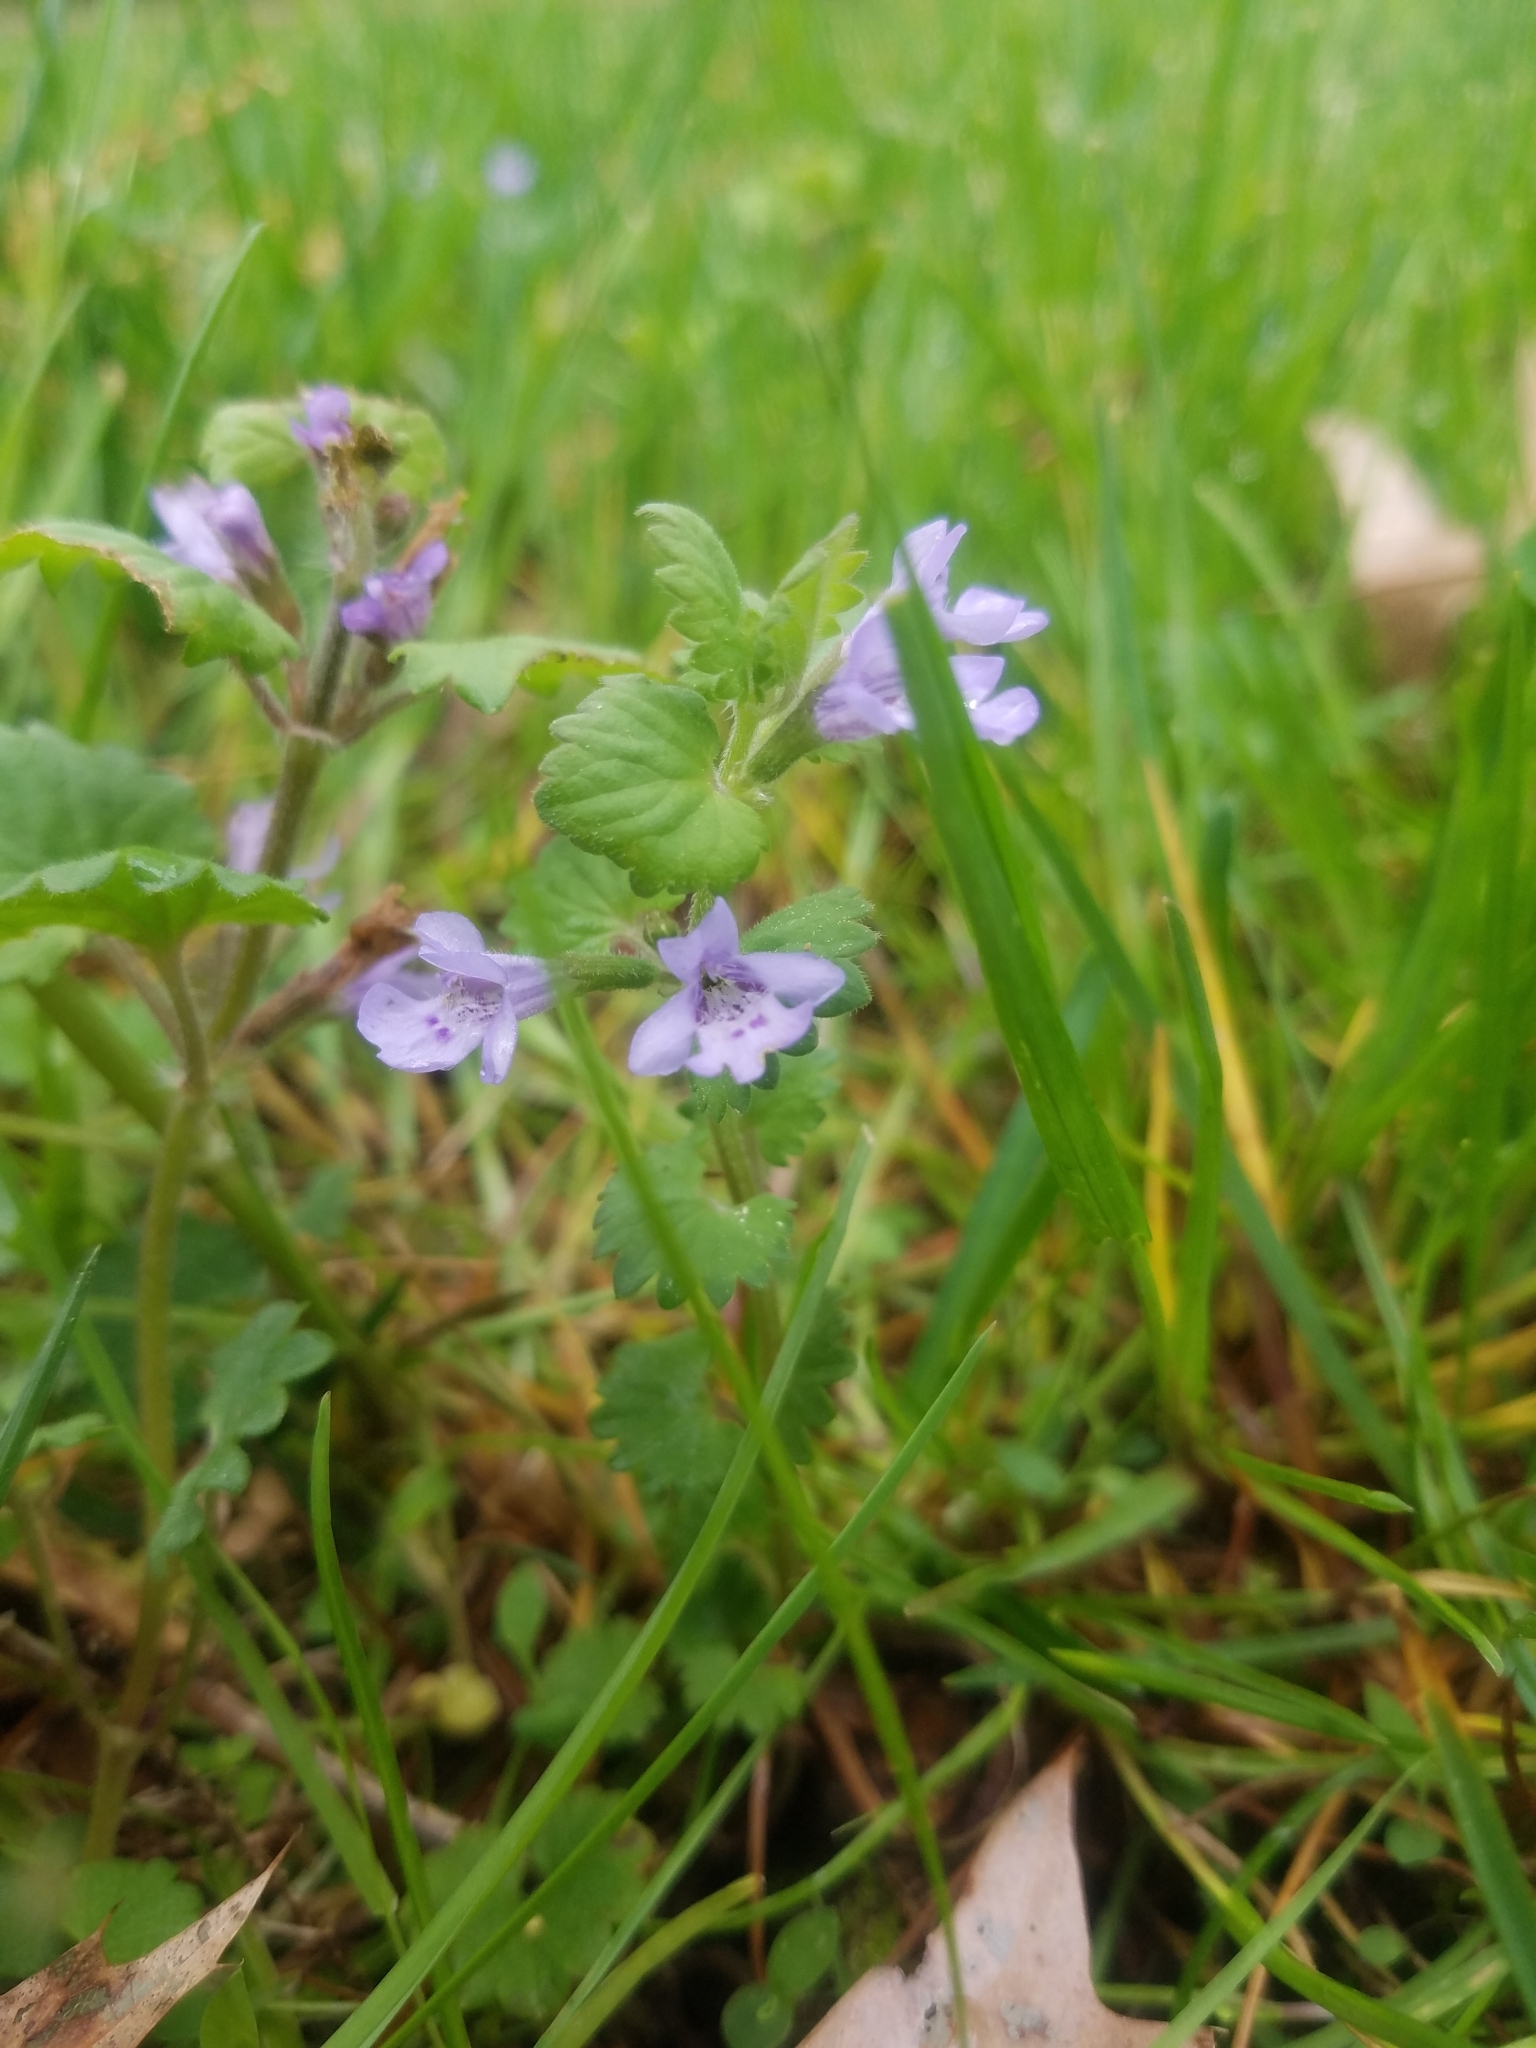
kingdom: Plantae
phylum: Tracheophyta
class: Magnoliopsida
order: Lamiales
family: Lamiaceae
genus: Glechoma
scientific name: Glechoma hederacea
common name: Ground ivy
